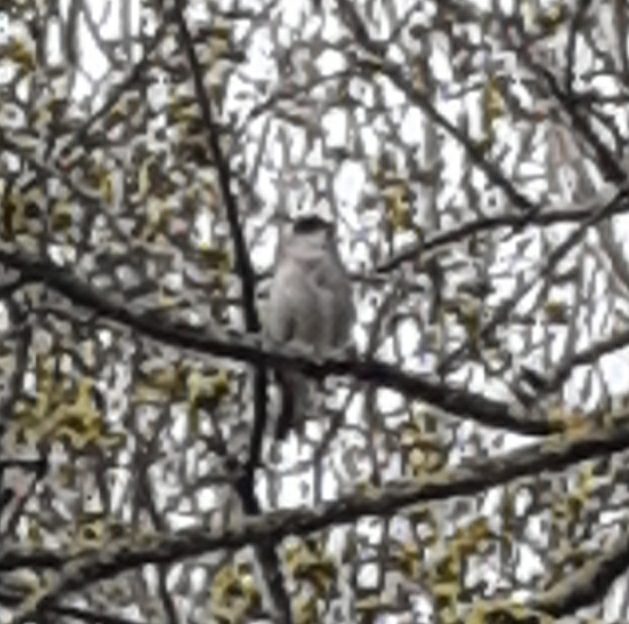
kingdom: Animalia
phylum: Chordata
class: Aves
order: Passeriformes
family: Sylviidae
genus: Sylvia
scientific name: Sylvia atricapilla
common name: Eurasian blackcap
